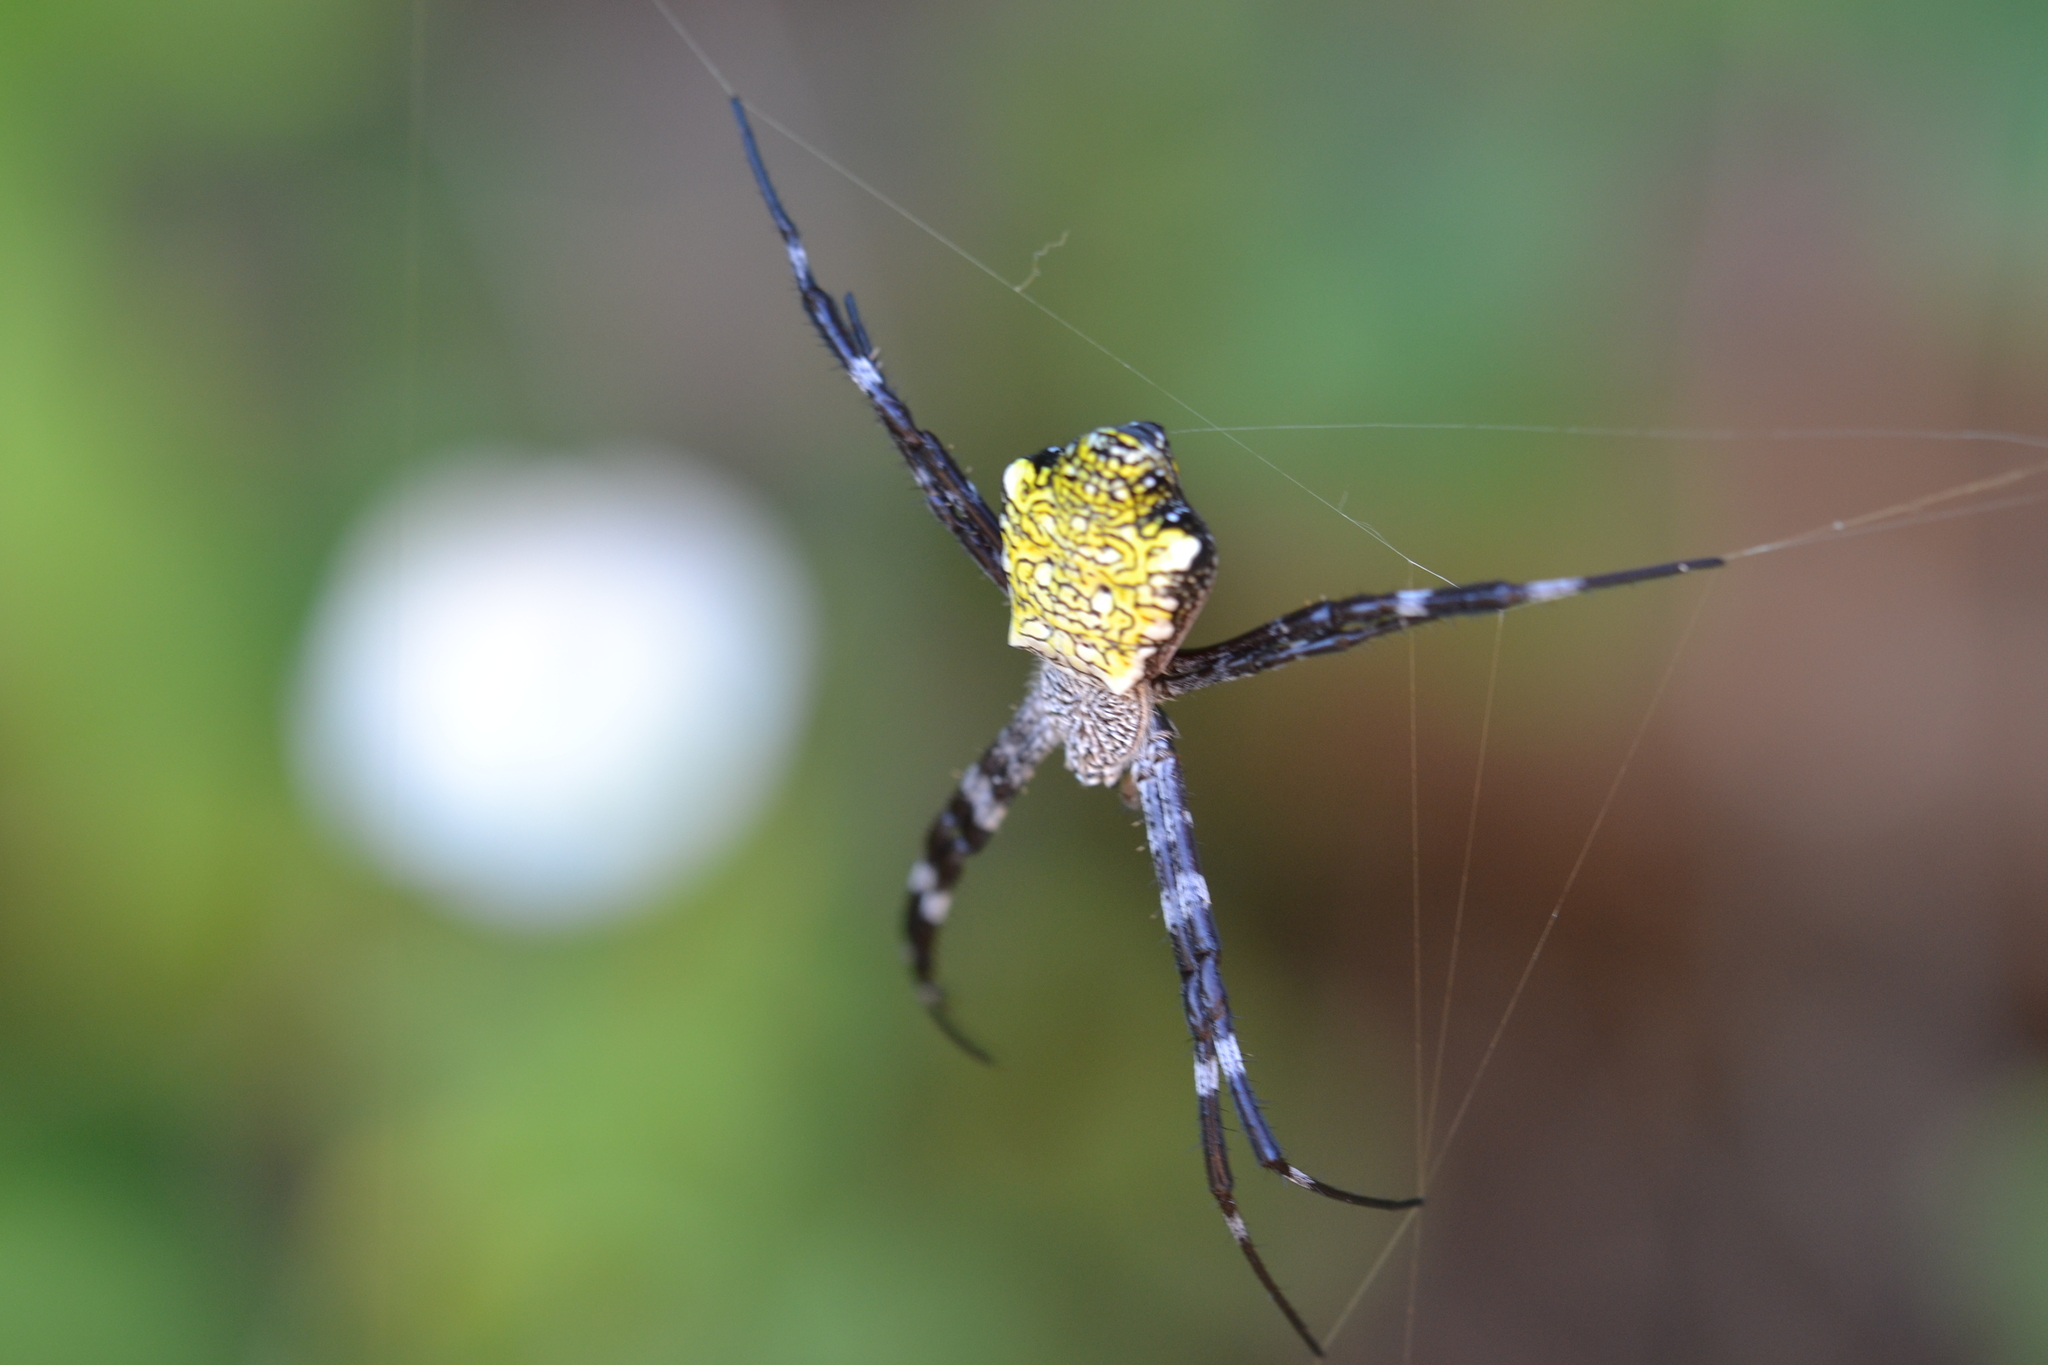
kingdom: Animalia
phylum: Arthropoda
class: Arachnida
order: Araneae
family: Araneidae
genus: Argiope
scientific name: Argiope appensa
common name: Garden spider
